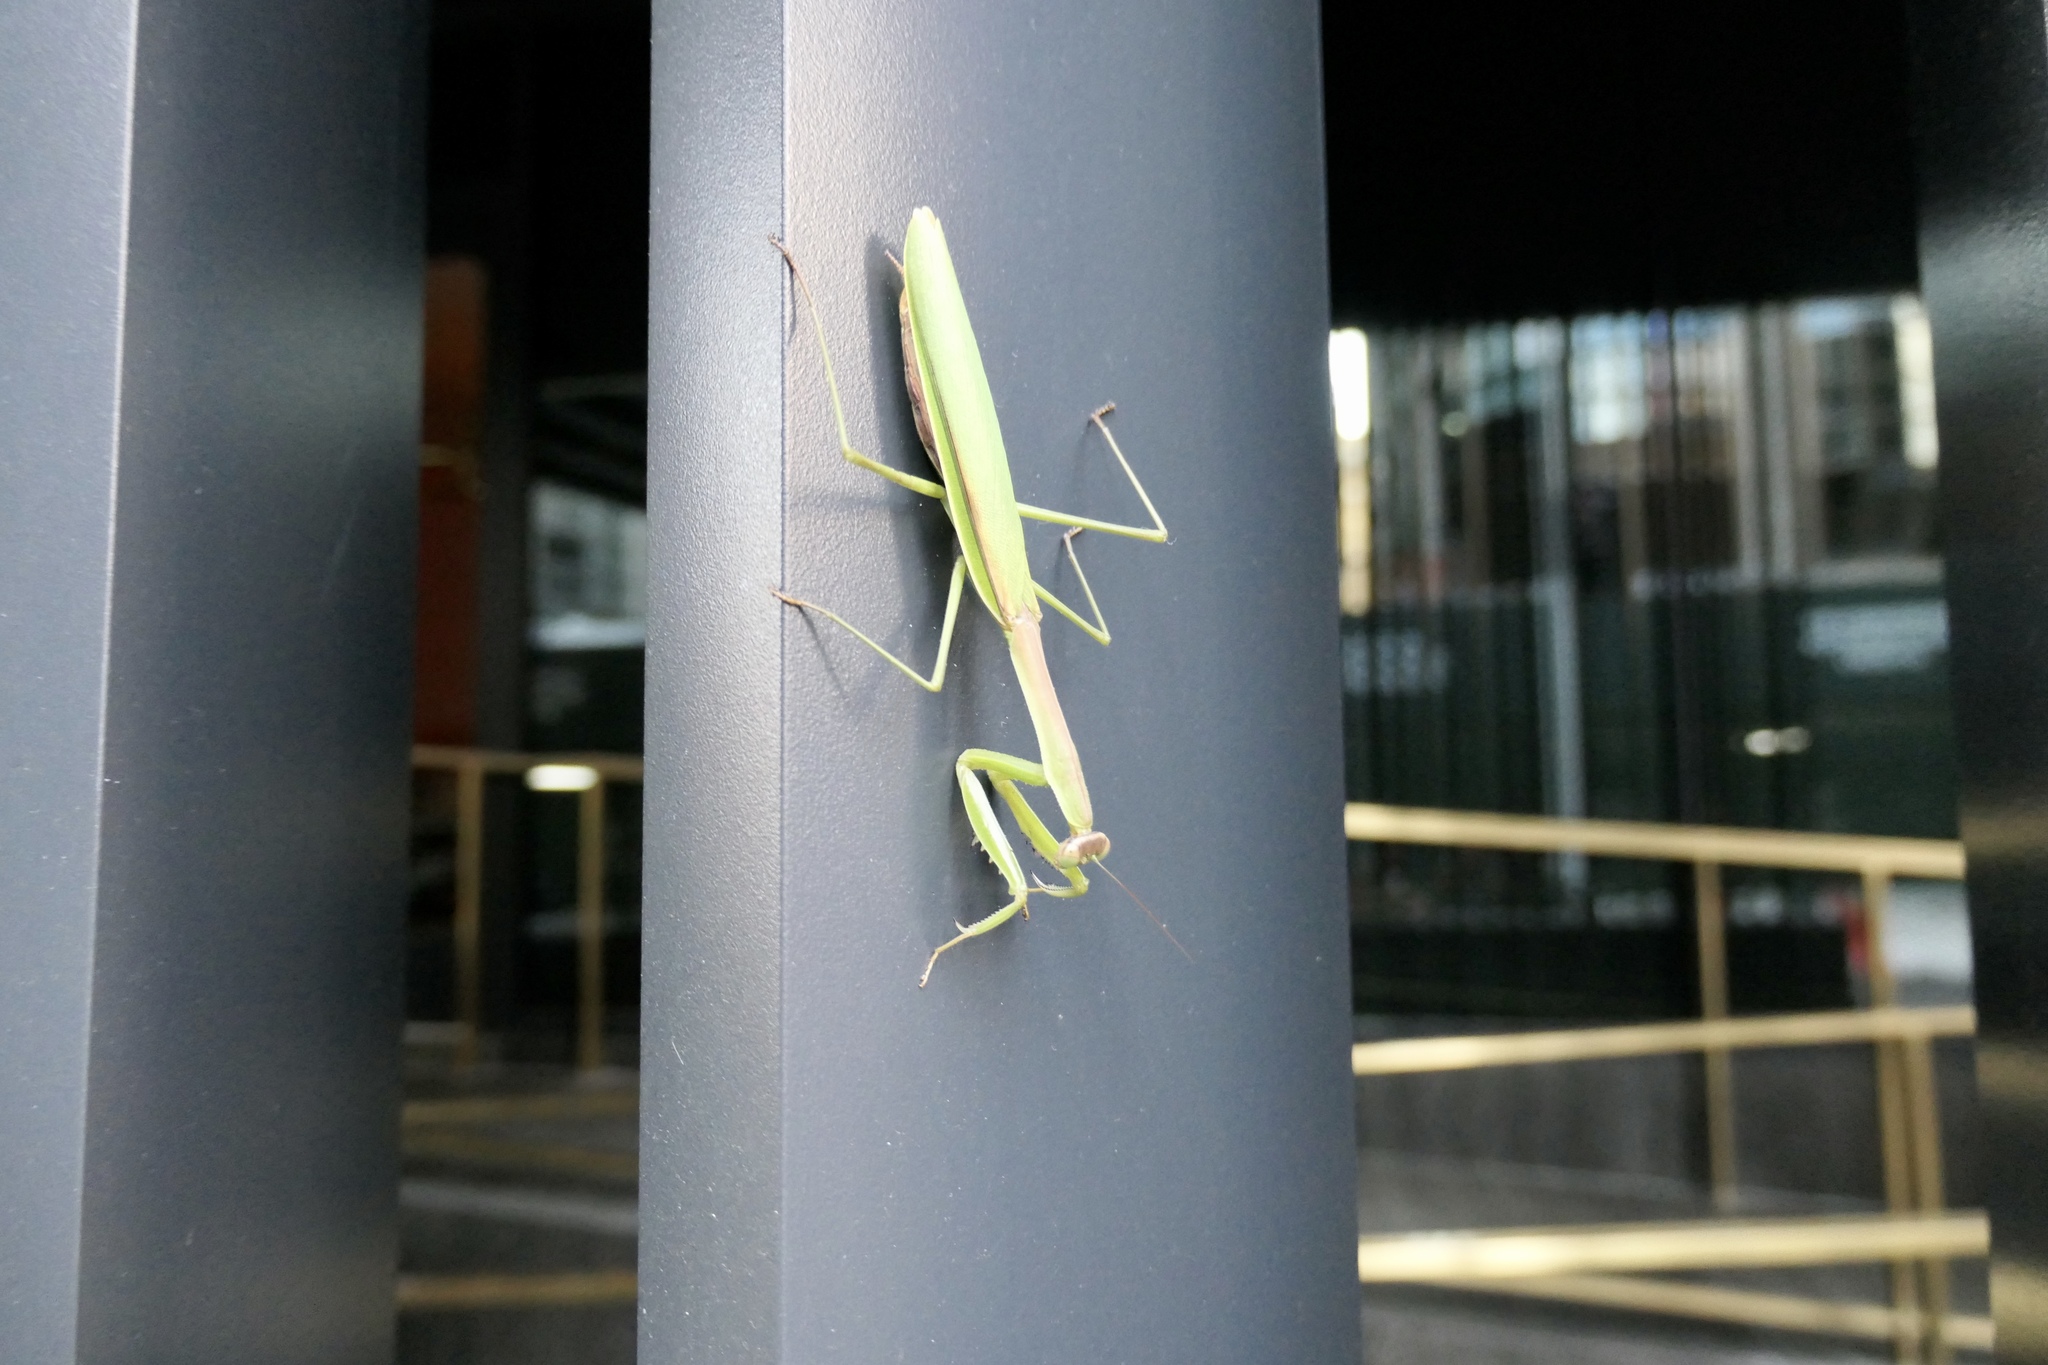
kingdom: Animalia
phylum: Arthropoda
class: Insecta
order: Mantodea
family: Mantidae
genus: Tenodera
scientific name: Tenodera angustipennis
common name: Asian mantis
